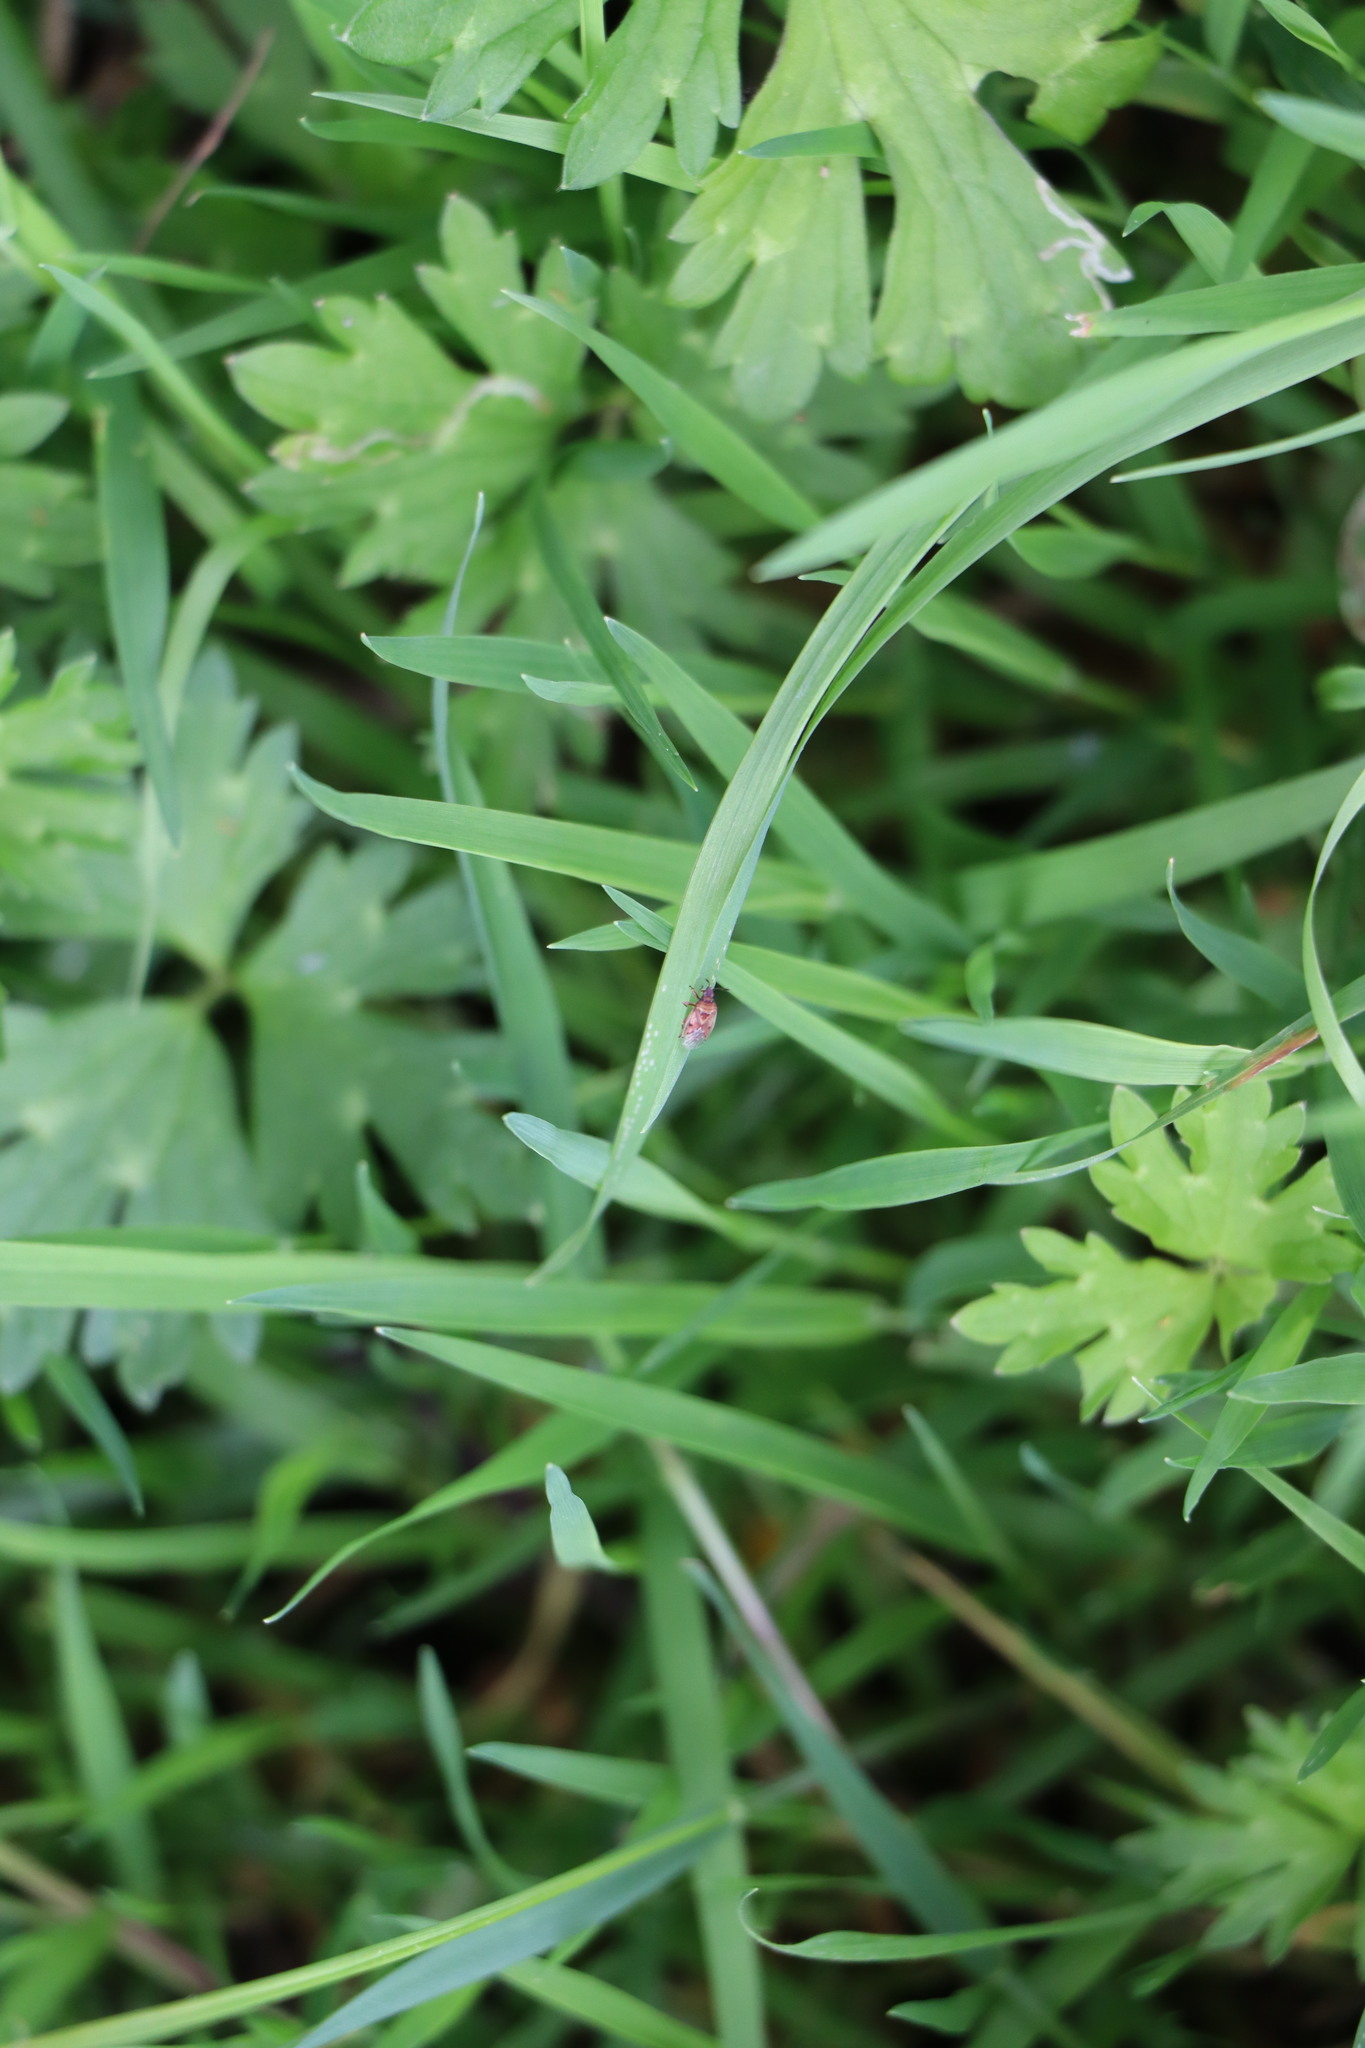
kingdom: Animalia
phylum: Arthropoda
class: Insecta
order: Hemiptera
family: Lygaeidae
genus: Kleidocerys
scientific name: Kleidocerys resedae
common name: Birch catkin bug
